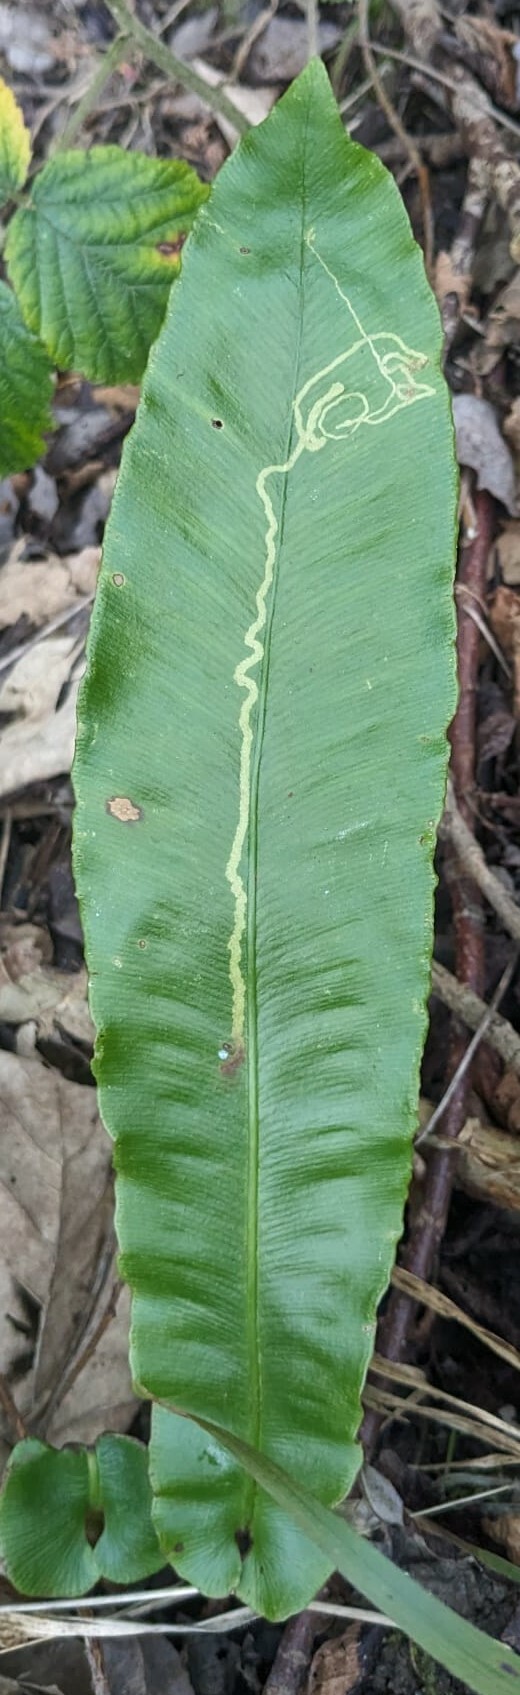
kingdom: Animalia
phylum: Arthropoda
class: Insecta
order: Diptera
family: Agromyzidae
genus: Phytomyza
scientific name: Phytomyza scolopendri
